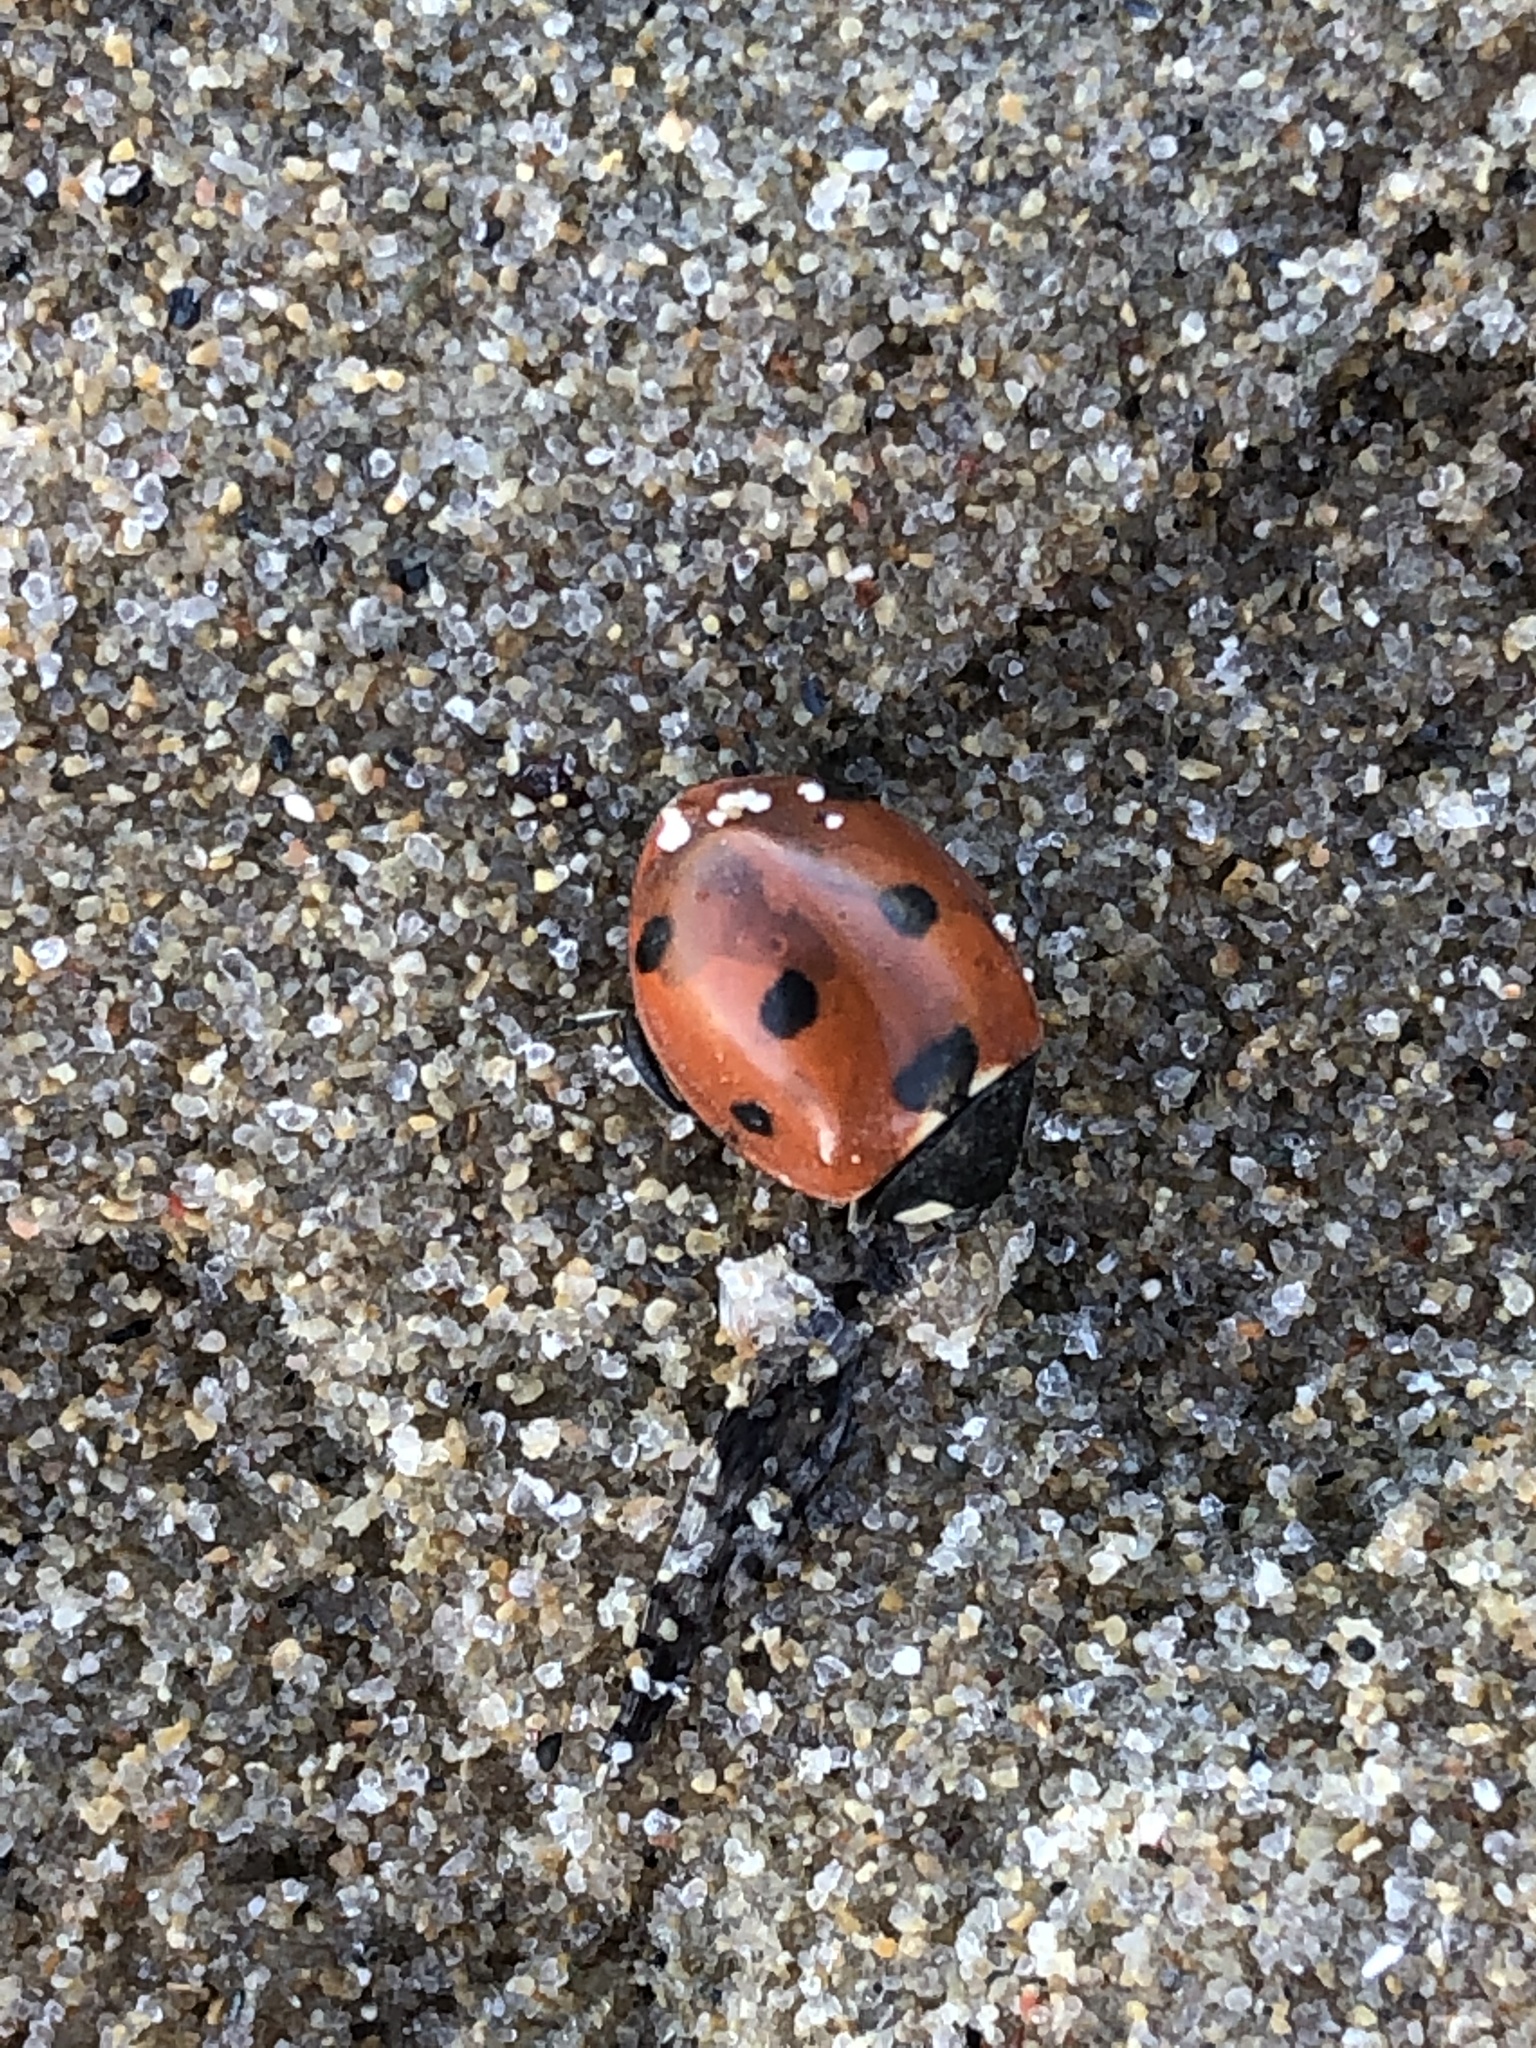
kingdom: Animalia
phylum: Arthropoda
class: Insecta
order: Coleoptera
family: Coccinellidae
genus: Coccinella
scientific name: Coccinella septempunctata
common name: Sevenspotted lady beetle
